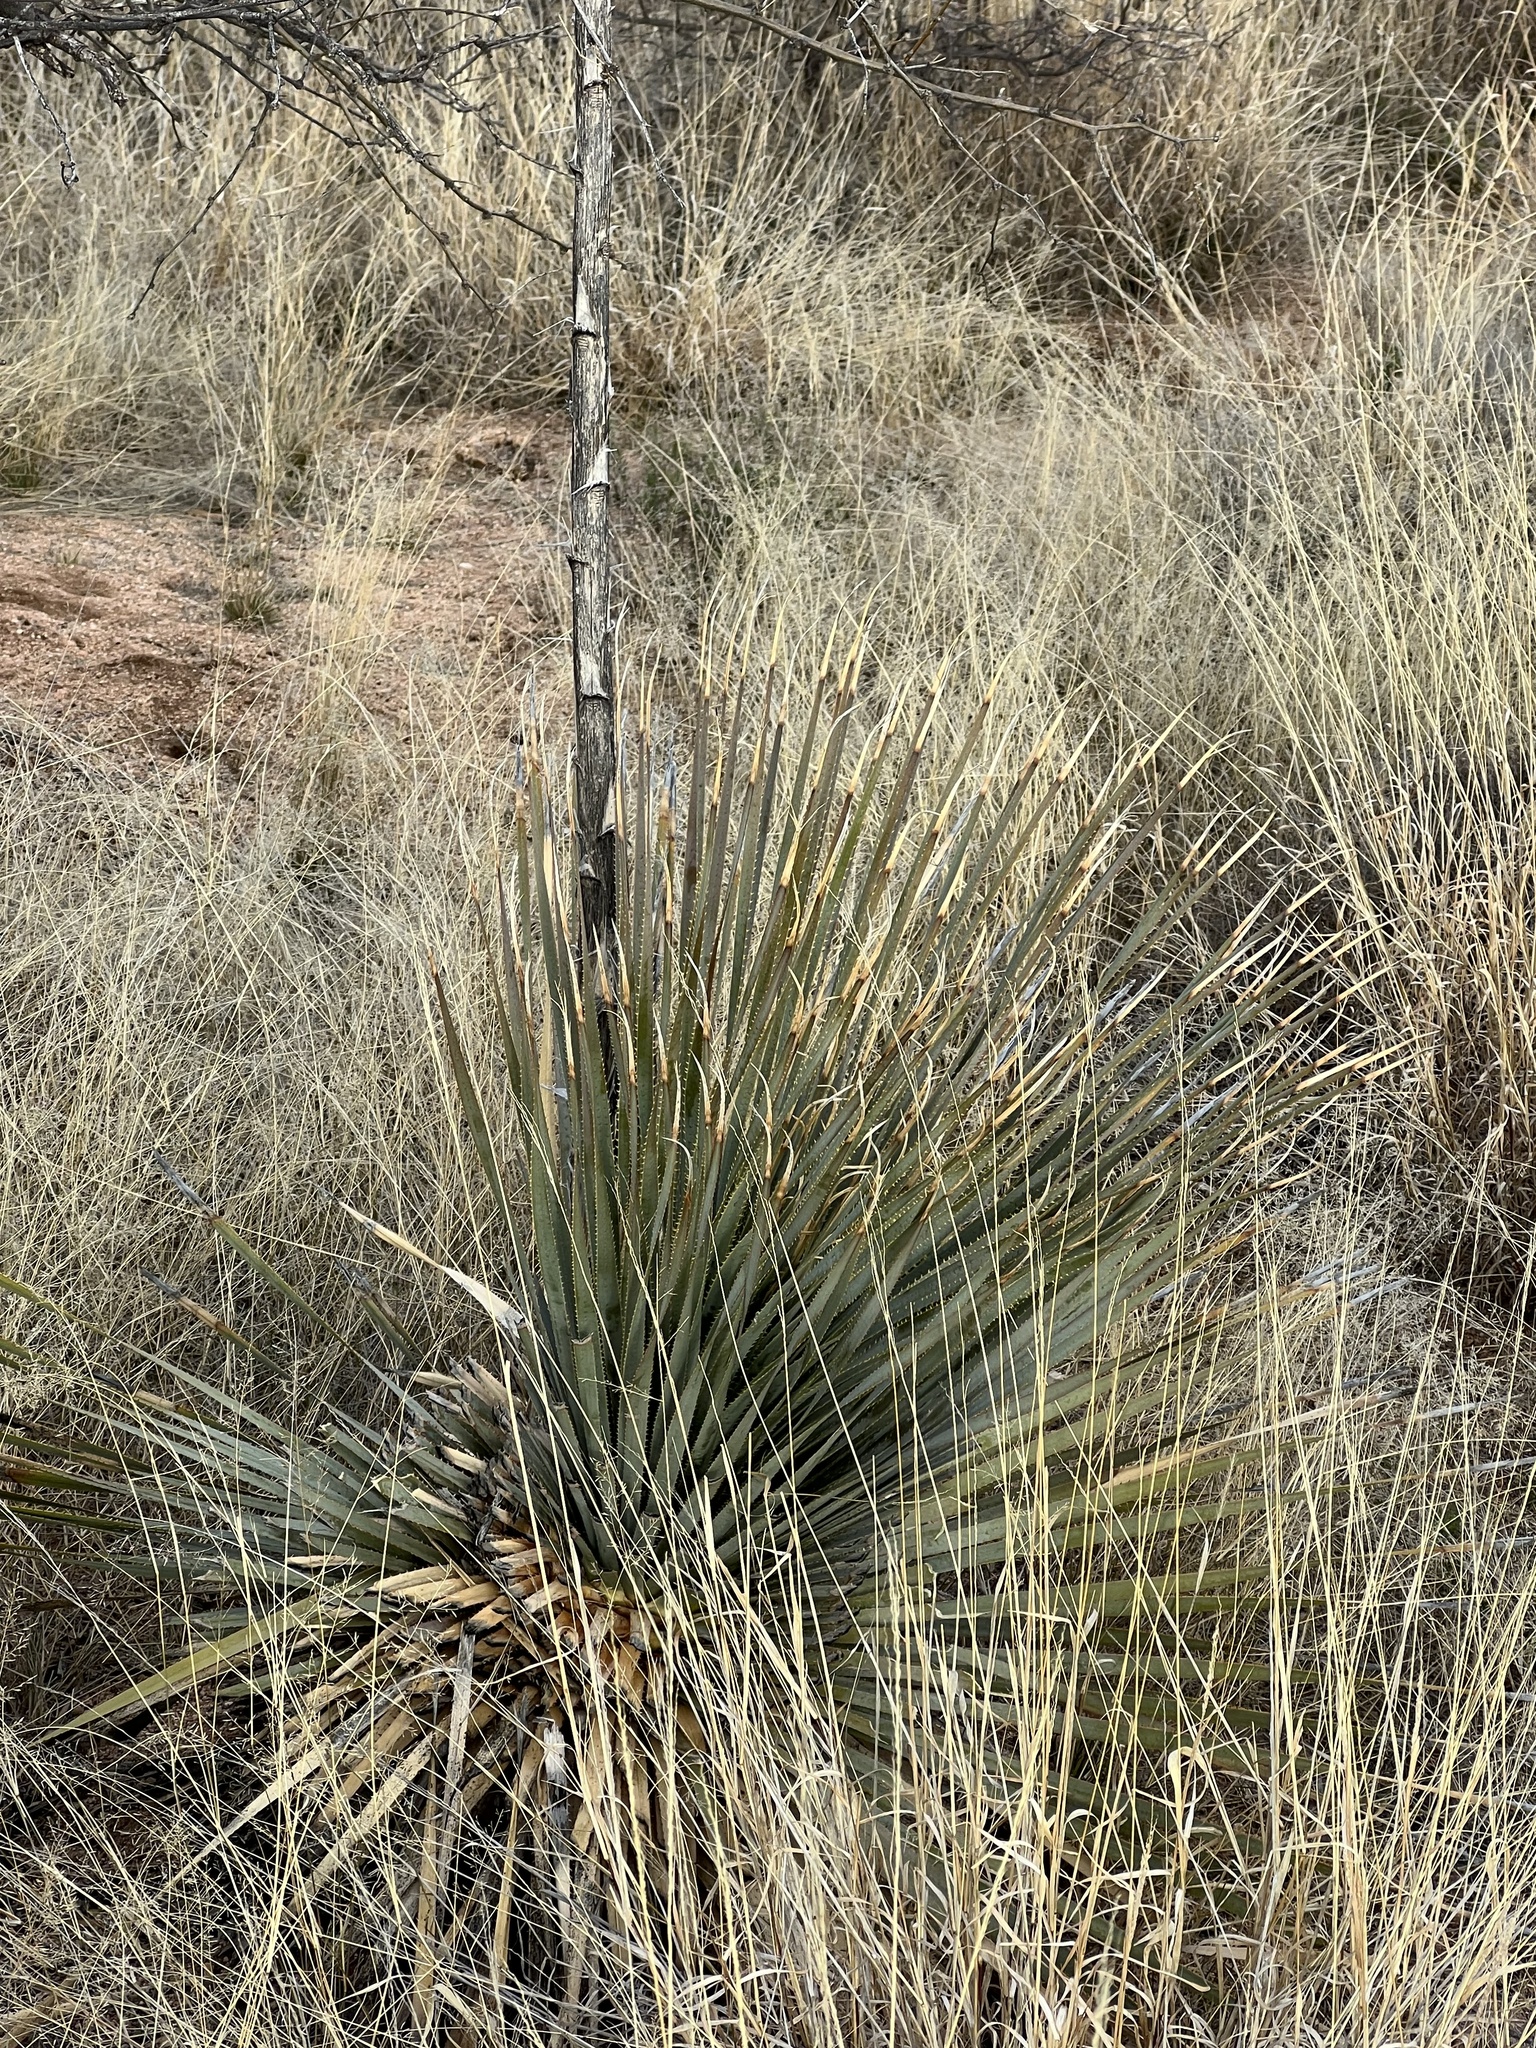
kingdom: Plantae
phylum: Tracheophyta
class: Liliopsida
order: Asparagales
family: Asparagaceae
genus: Dasylirion
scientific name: Dasylirion wheeleri
